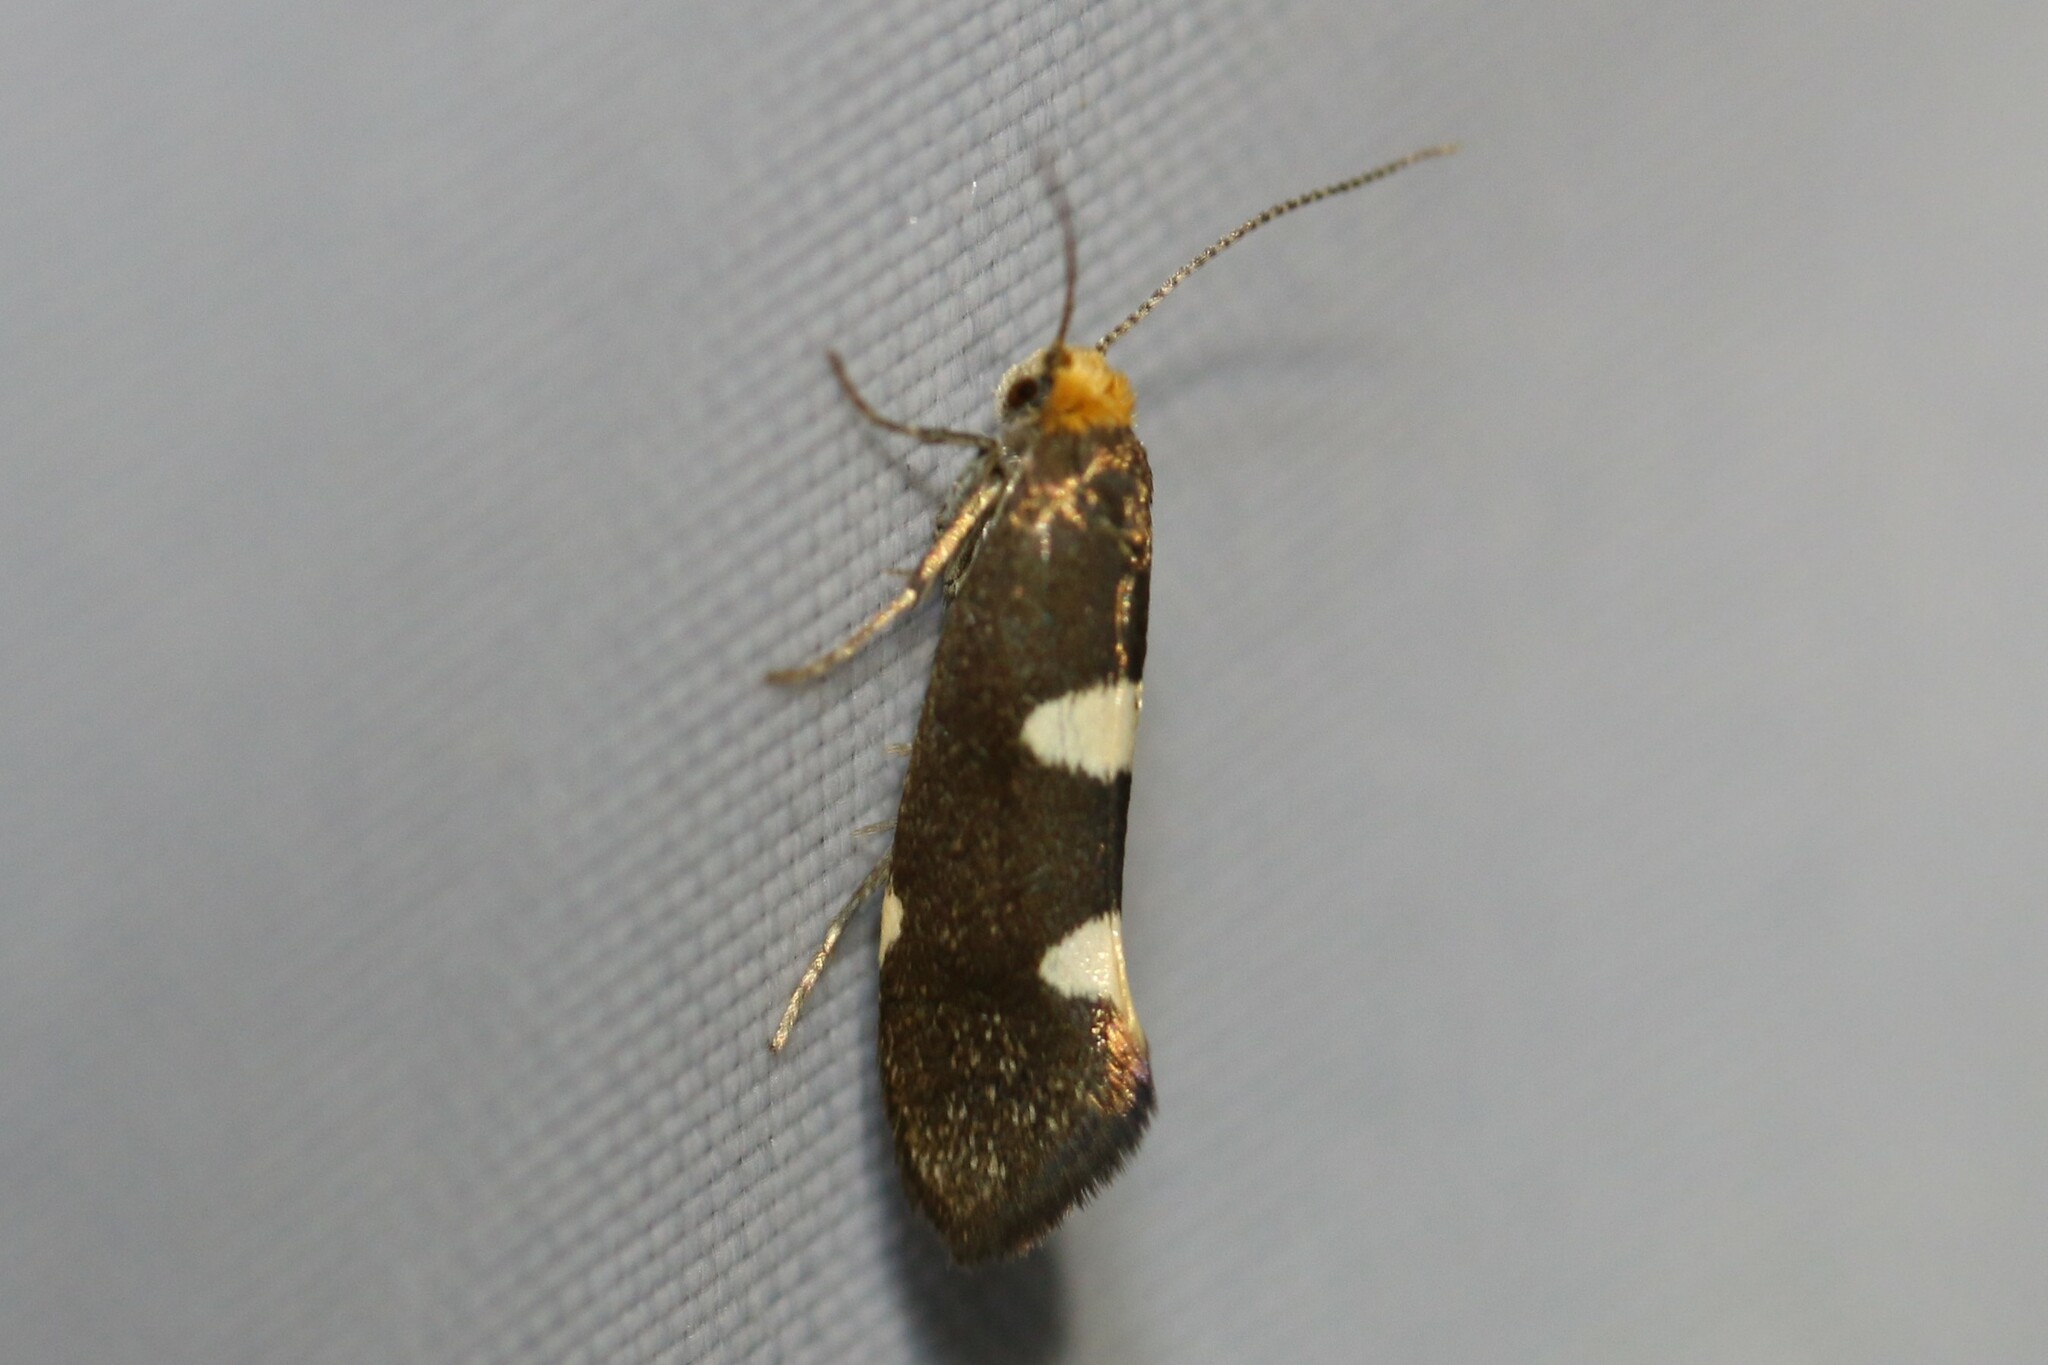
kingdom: Animalia
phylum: Arthropoda
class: Insecta
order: Lepidoptera
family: Incurvariidae
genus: Incurvaria
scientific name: Incurvaria masculella
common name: Feathered leaf-cutter
